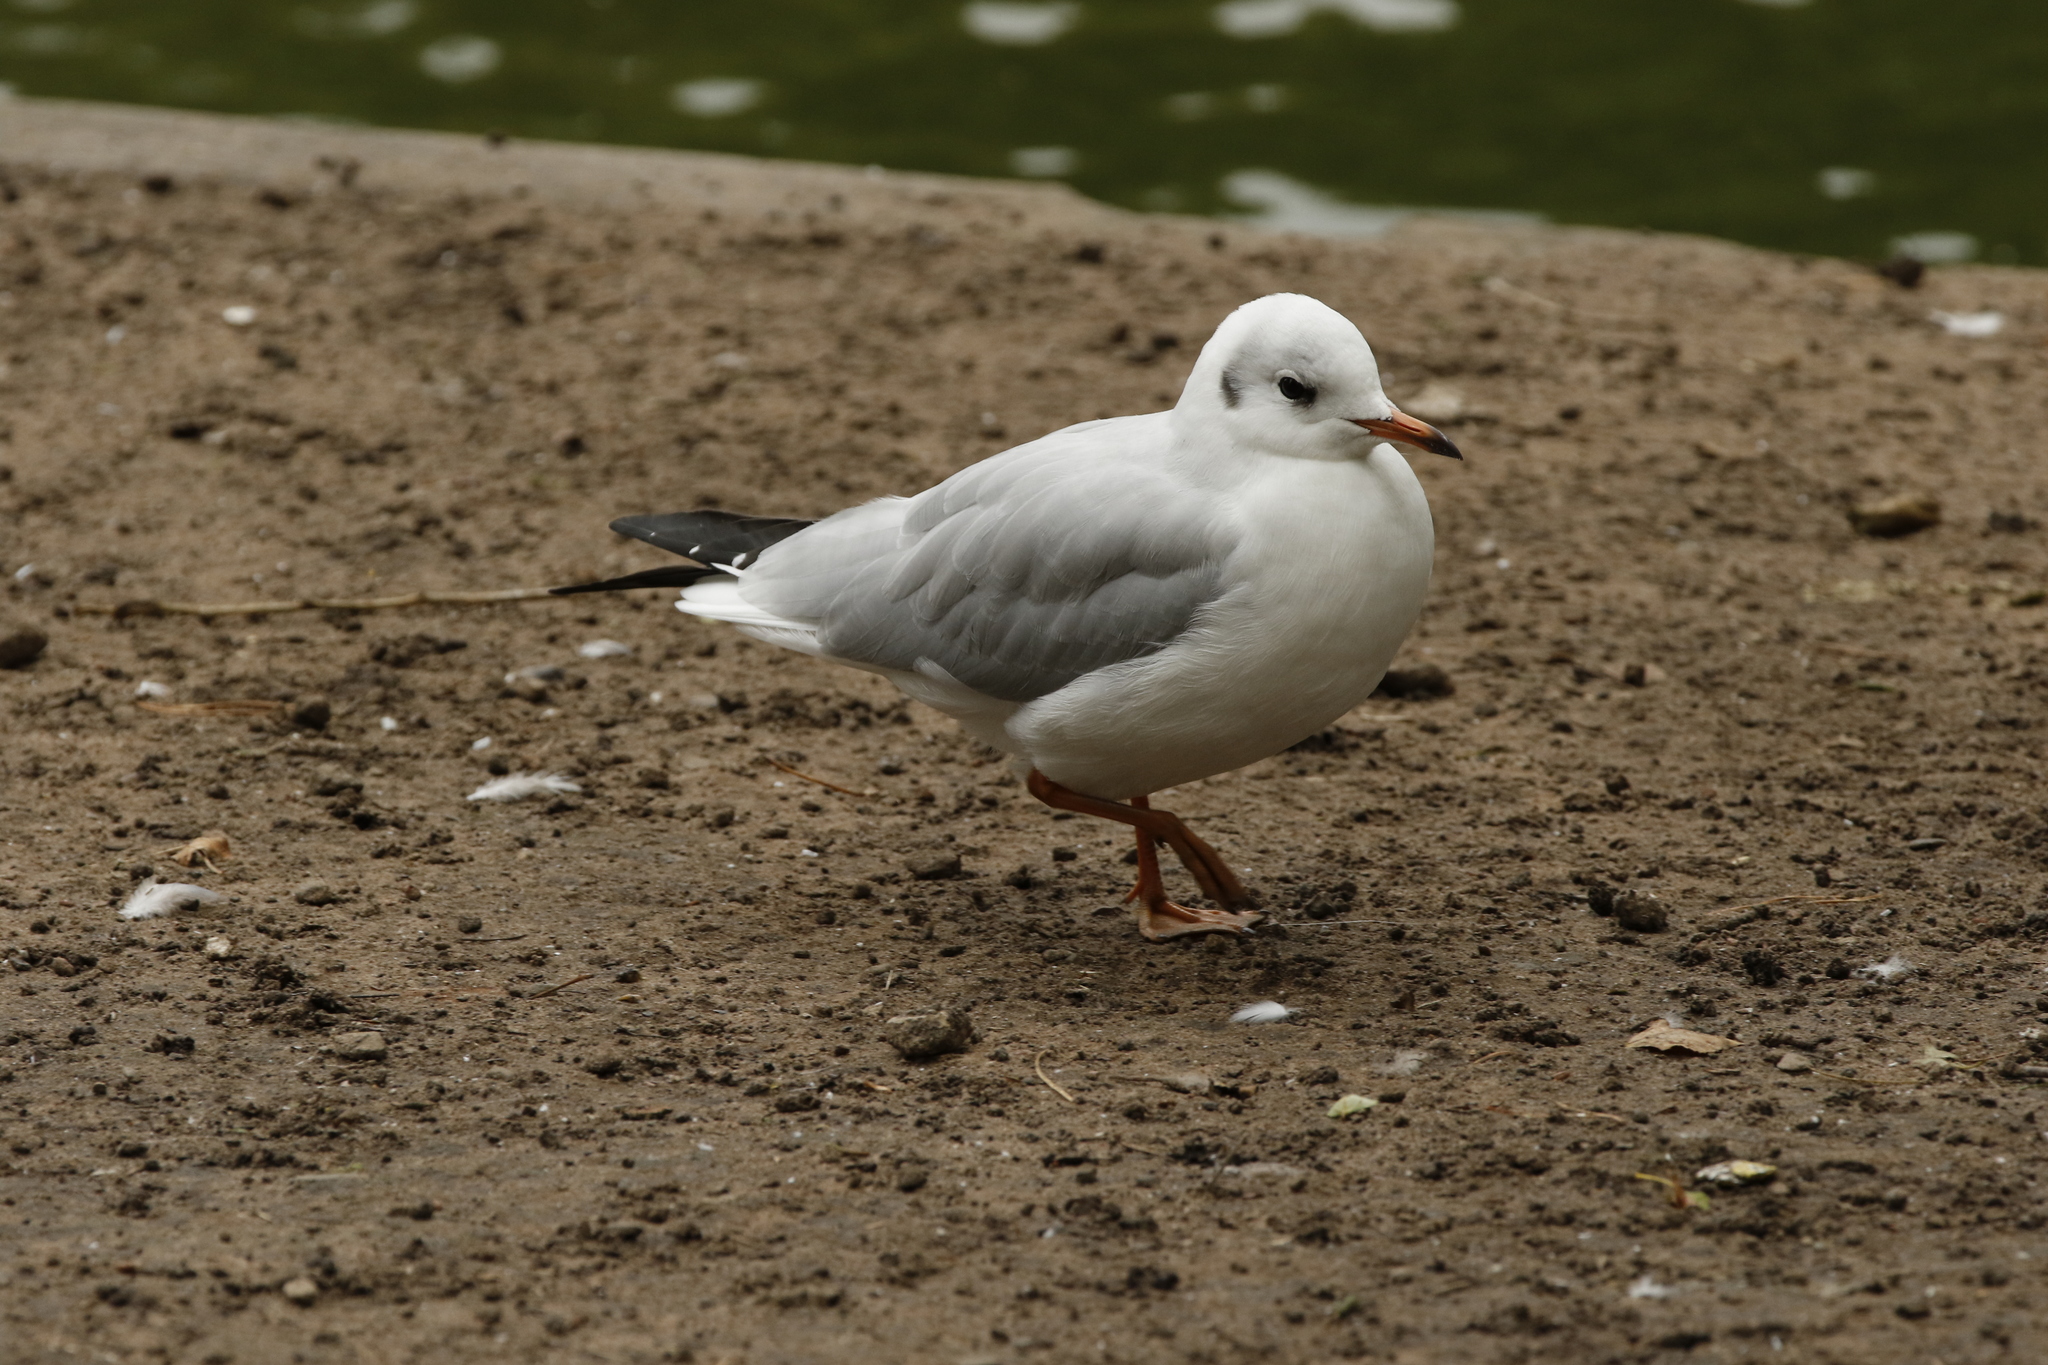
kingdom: Animalia
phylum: Chordata
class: Aves
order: Charadriiformes
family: Laridae
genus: Chroicocephalus
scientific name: Chroicocephalus ridibundus
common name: Black-headed gull
